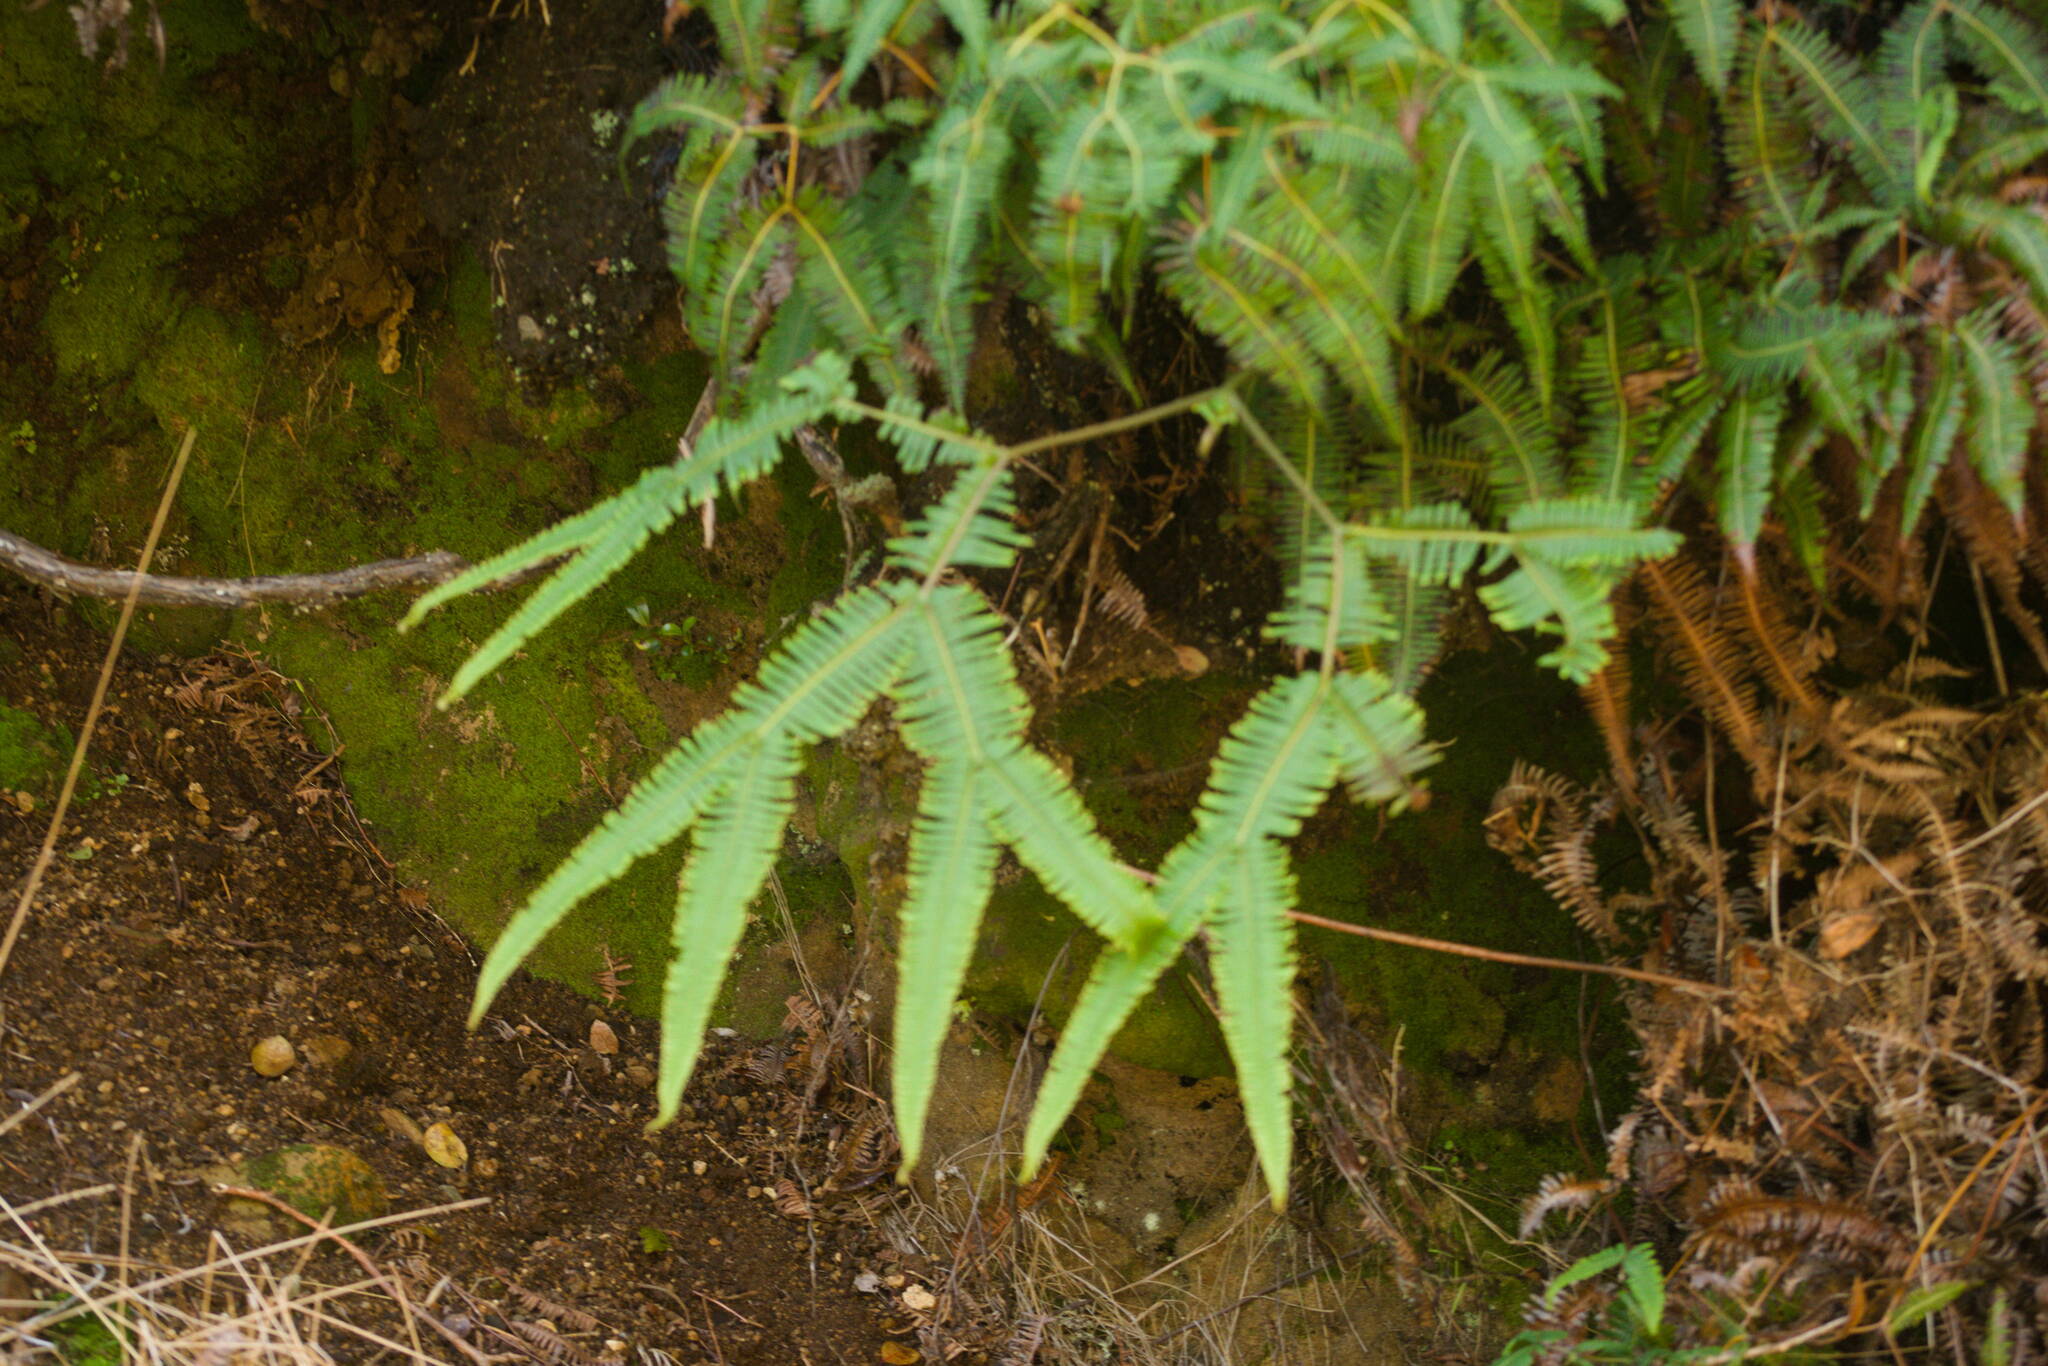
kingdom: Plantae
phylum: Tracheophyta
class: Polypodiopsida
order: Gleicheniales
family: Gleicheniaceae
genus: Sticherus
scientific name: Sticherus owhyhensis
